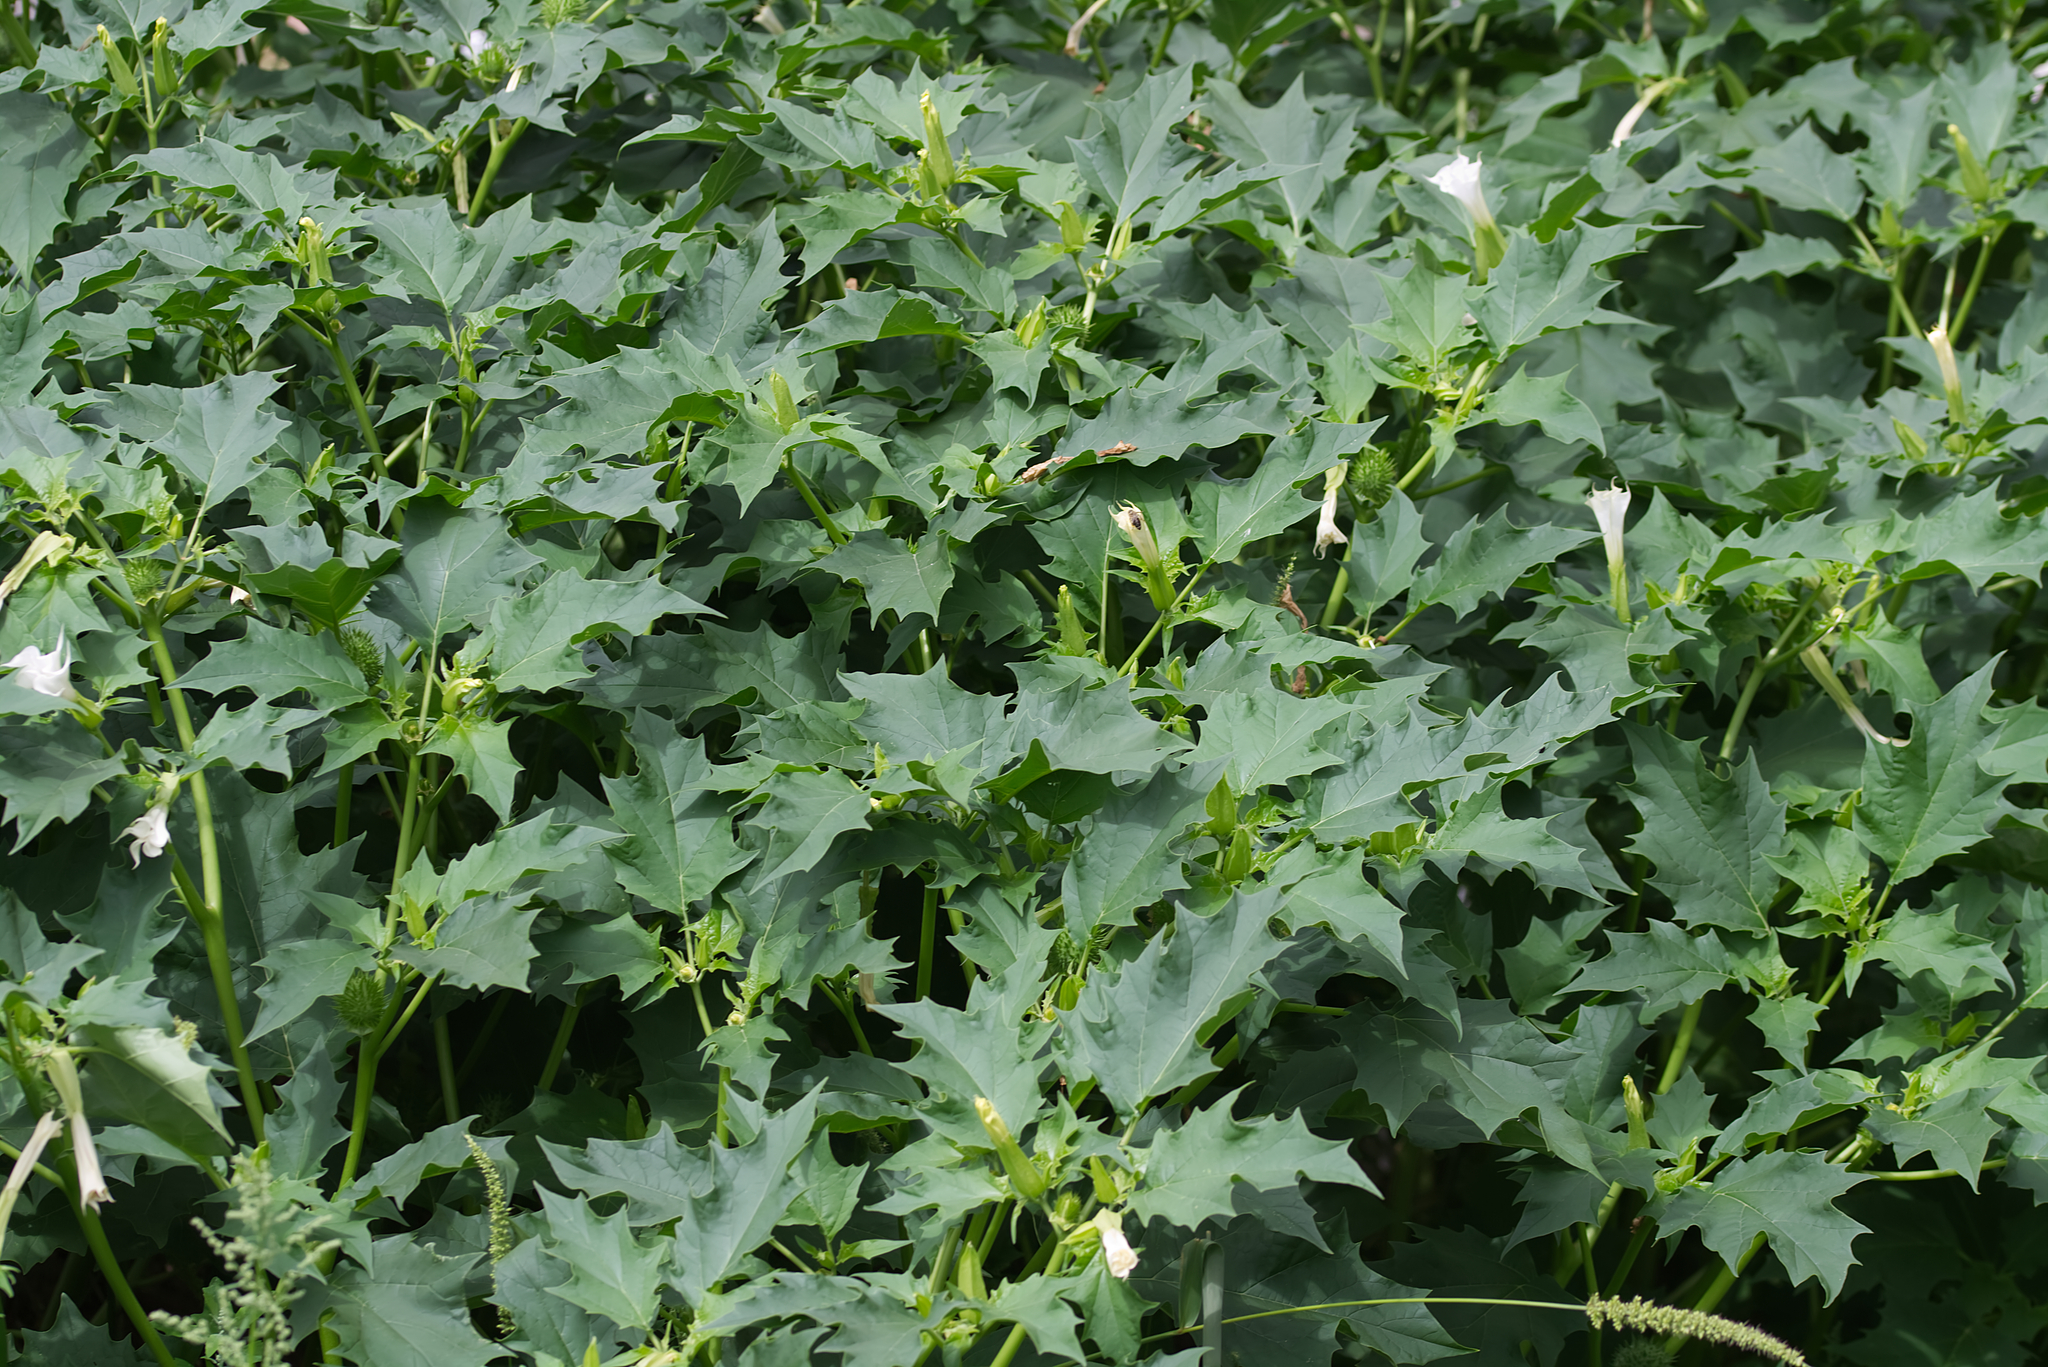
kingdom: Plantae
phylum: Tracheophyta
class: Magnoliopsida
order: Solanales
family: Solanaceae
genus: Datura
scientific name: Datura stramonium
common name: Thorn-apple
